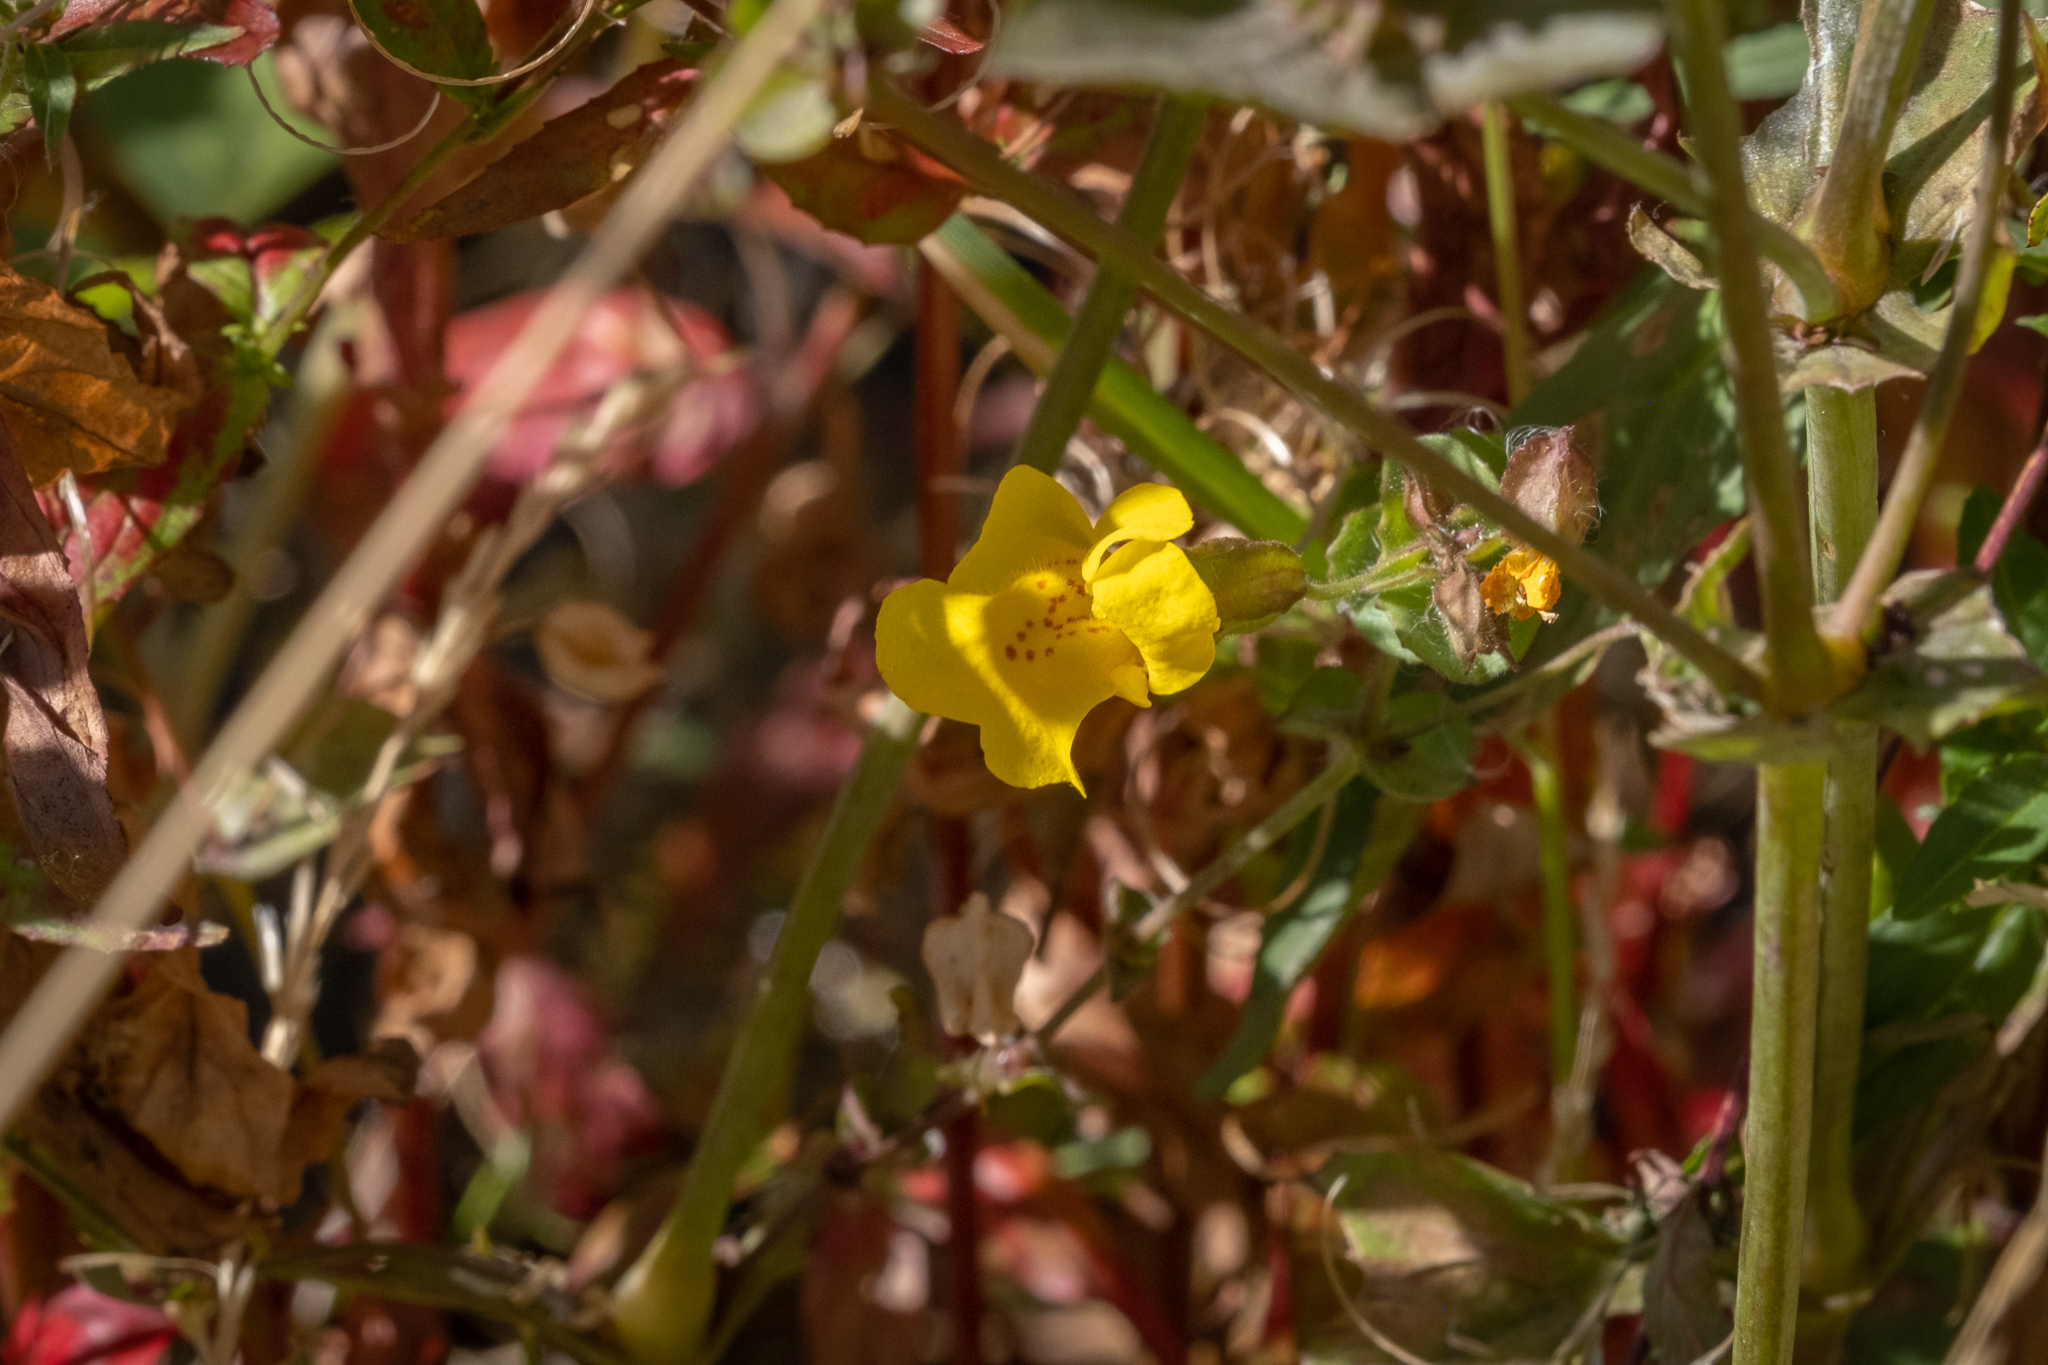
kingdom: Plantae
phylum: Tracheophyta
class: Magnoliopsida
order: Lamiales
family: Phrymaceae
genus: Erythranthe
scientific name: Erythranthe guttata
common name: Monkeyflower
